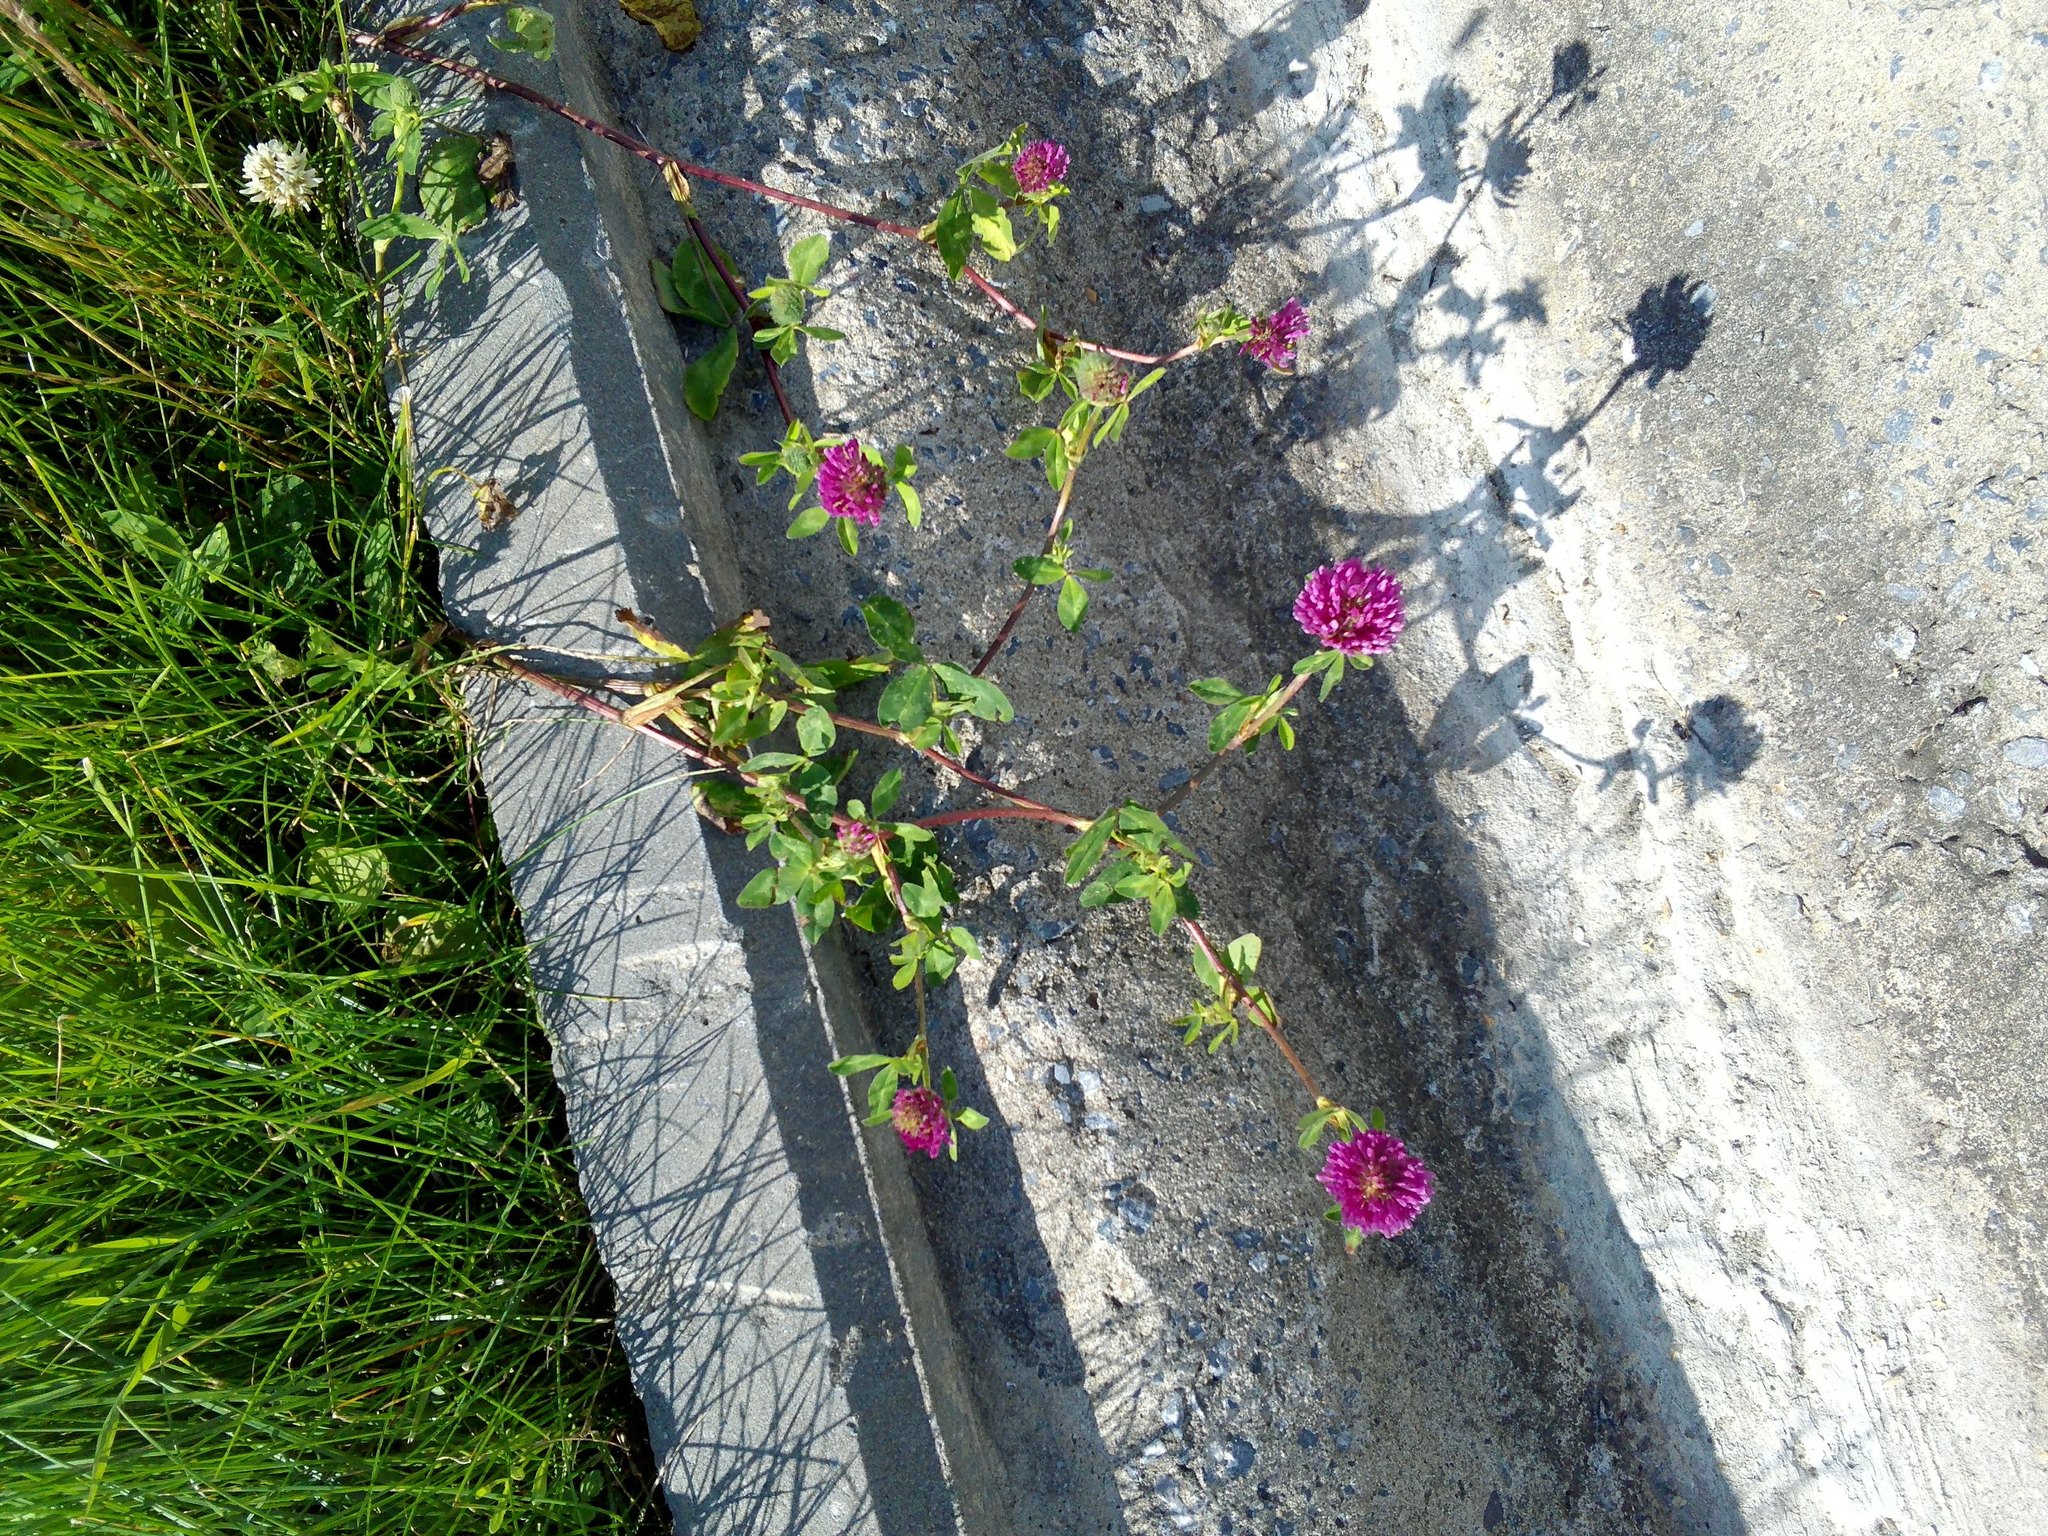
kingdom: Plantae
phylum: Tracheophyta
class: Magnoliopsida
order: Fabales
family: Fabaceae
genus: Trifolium
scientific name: Trifolium pratense
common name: Red clover
